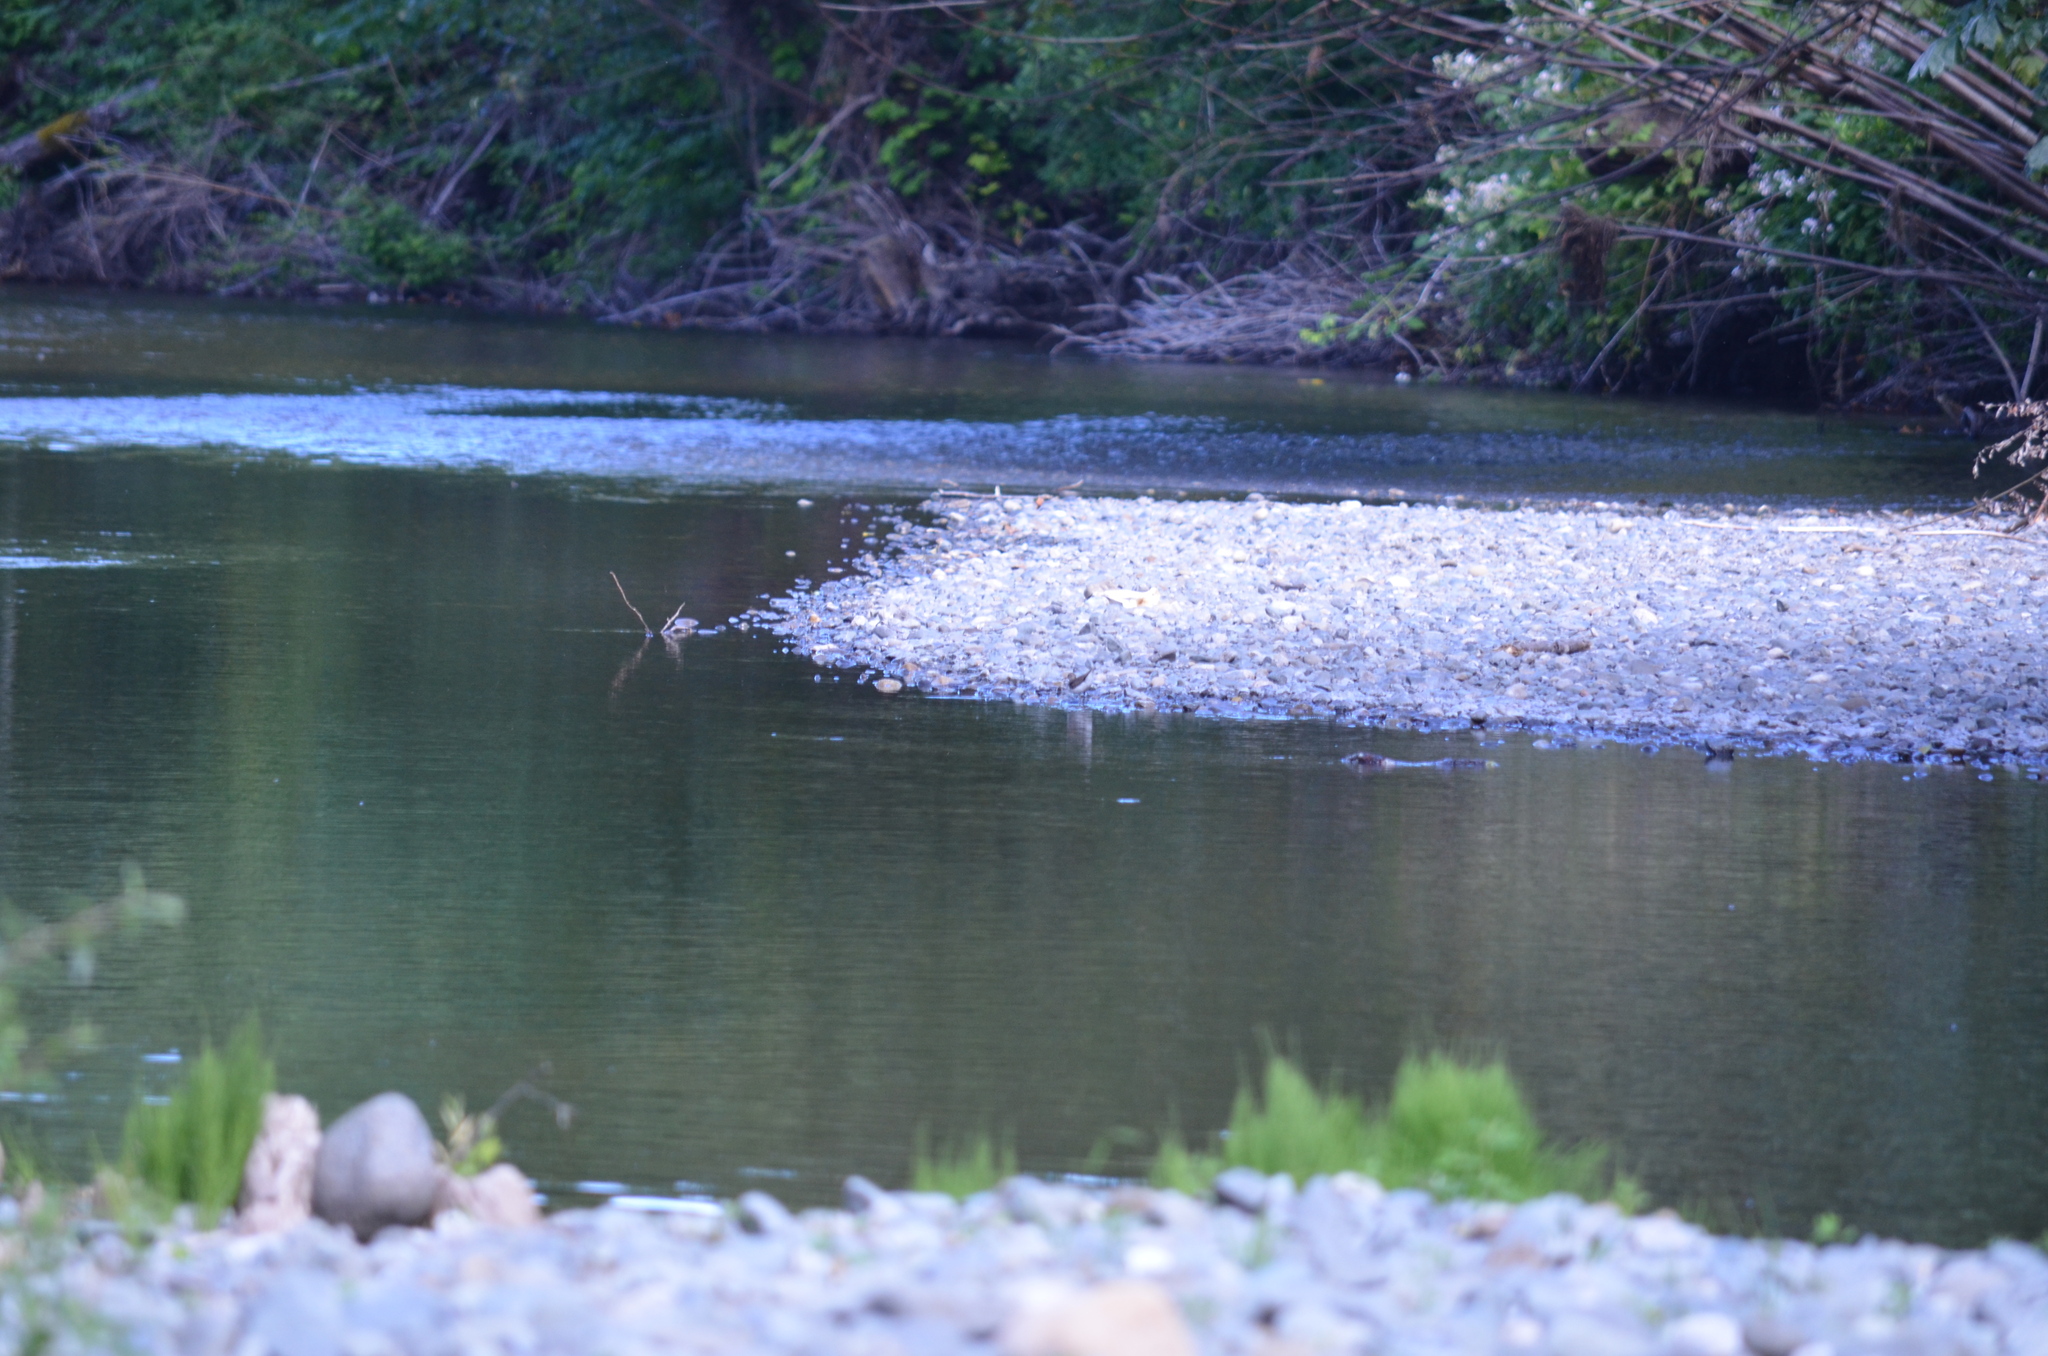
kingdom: Animalia
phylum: Chordata
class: Aves
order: Charadriiformes
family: Scolopacidae
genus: Actitis
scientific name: Actitis macularius
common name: Spotted sandpiper
